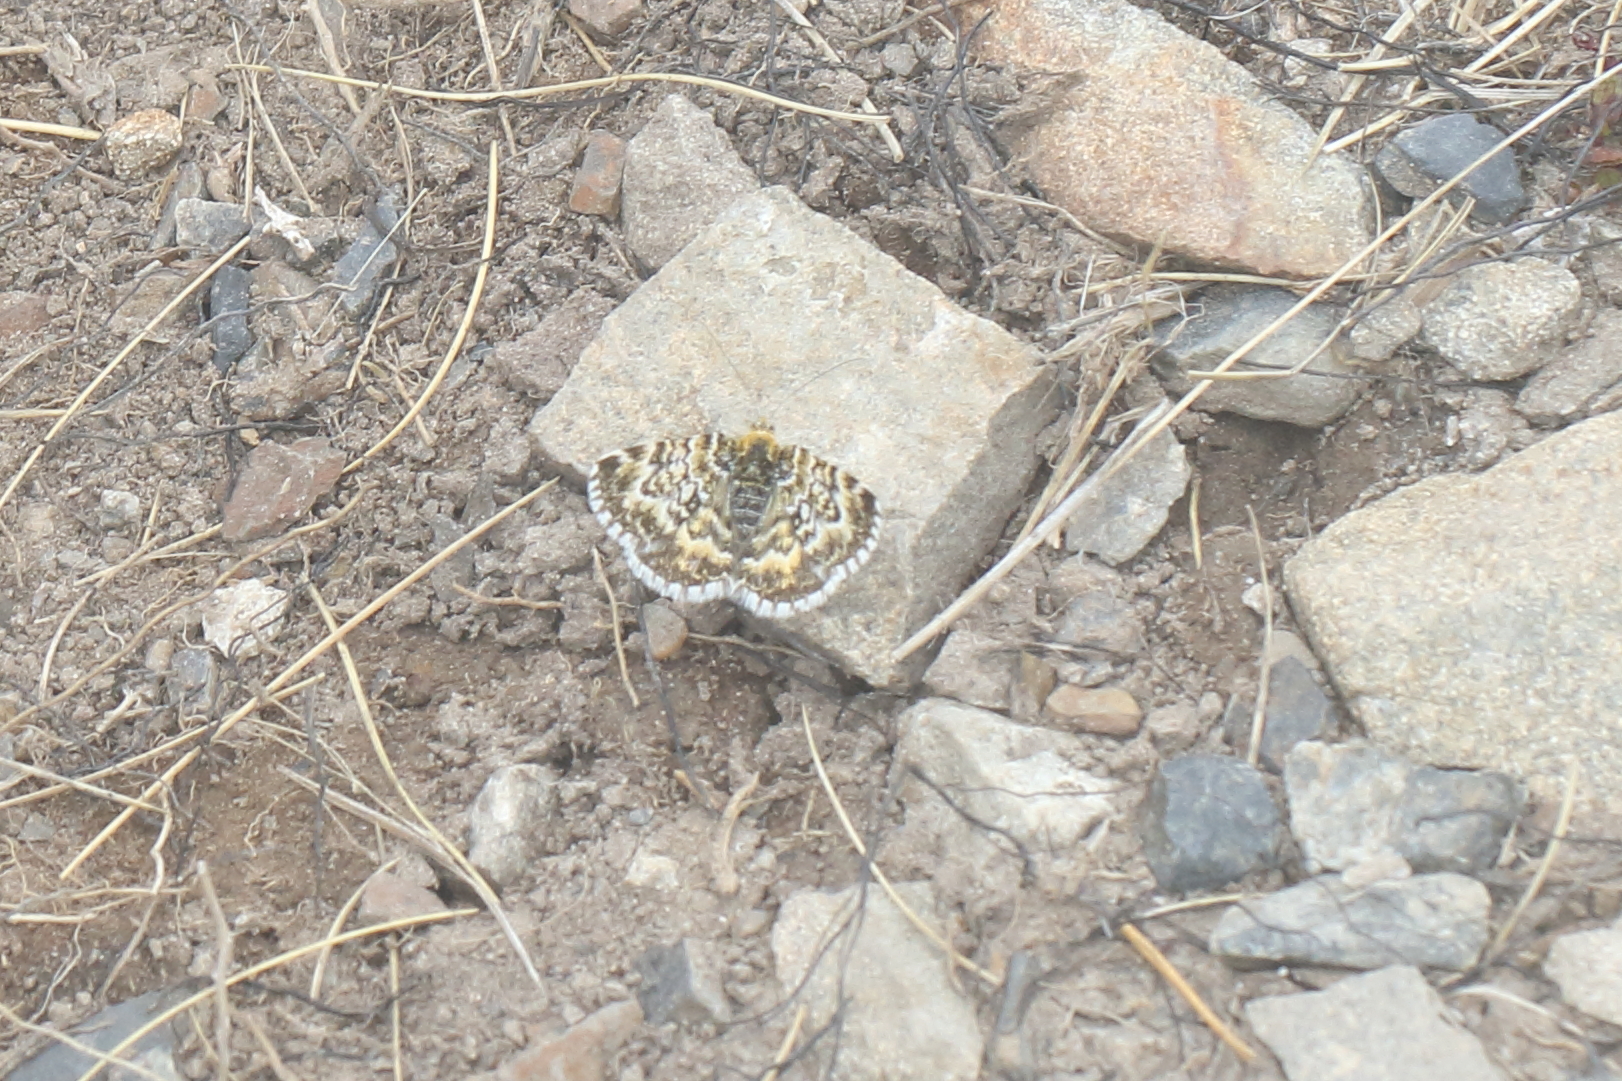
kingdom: Animalia
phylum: Arthropoda
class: Insecta
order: Lepidoptera
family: Geometridae
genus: Notoreas
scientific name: Notoreas ischnocyma
